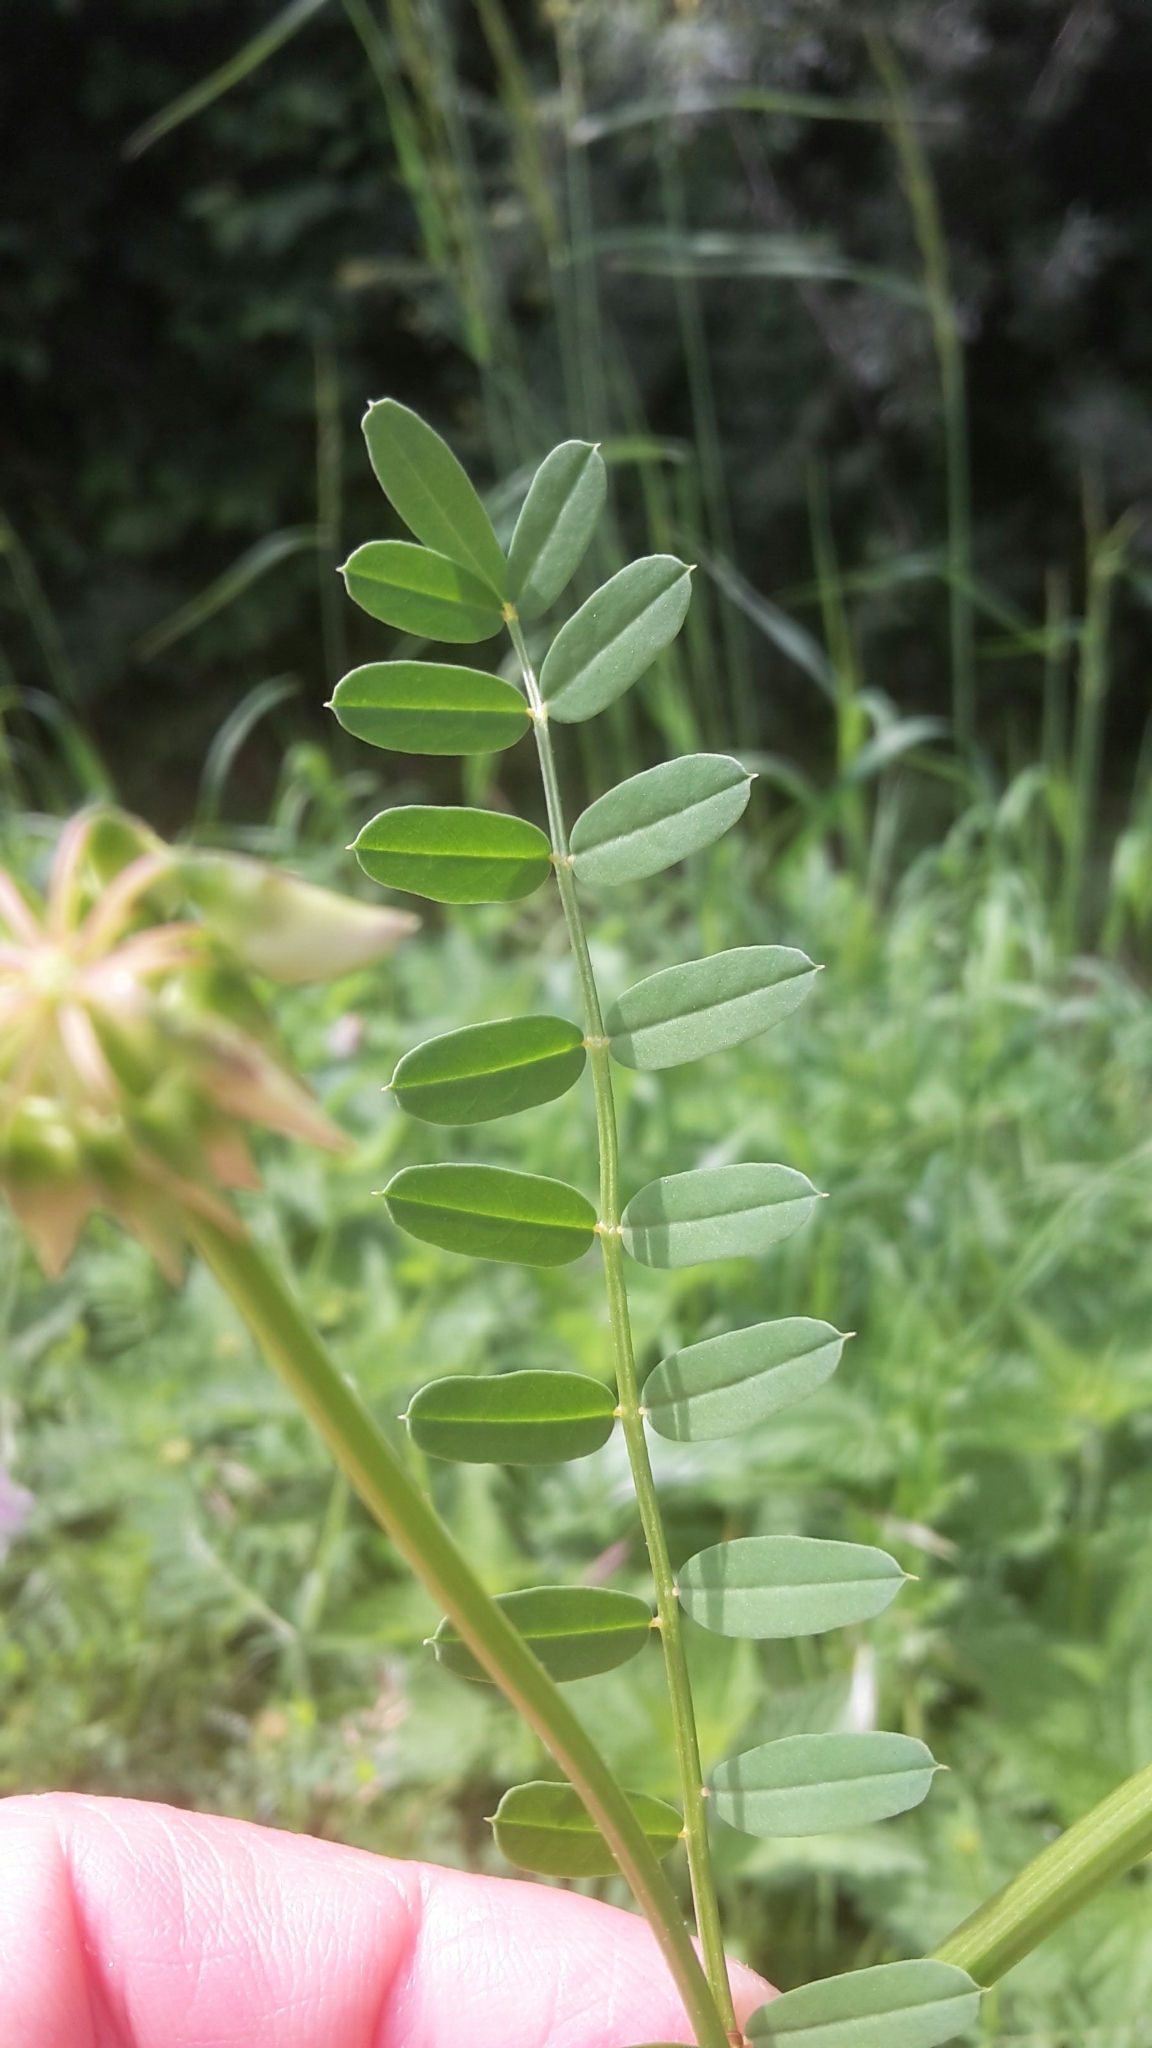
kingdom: Plantae
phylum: Tracheophyta
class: Magnoliopsida
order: Fabales
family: Fabaceae
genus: Coronilla
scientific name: Coronilla varia
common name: Crownvetch
